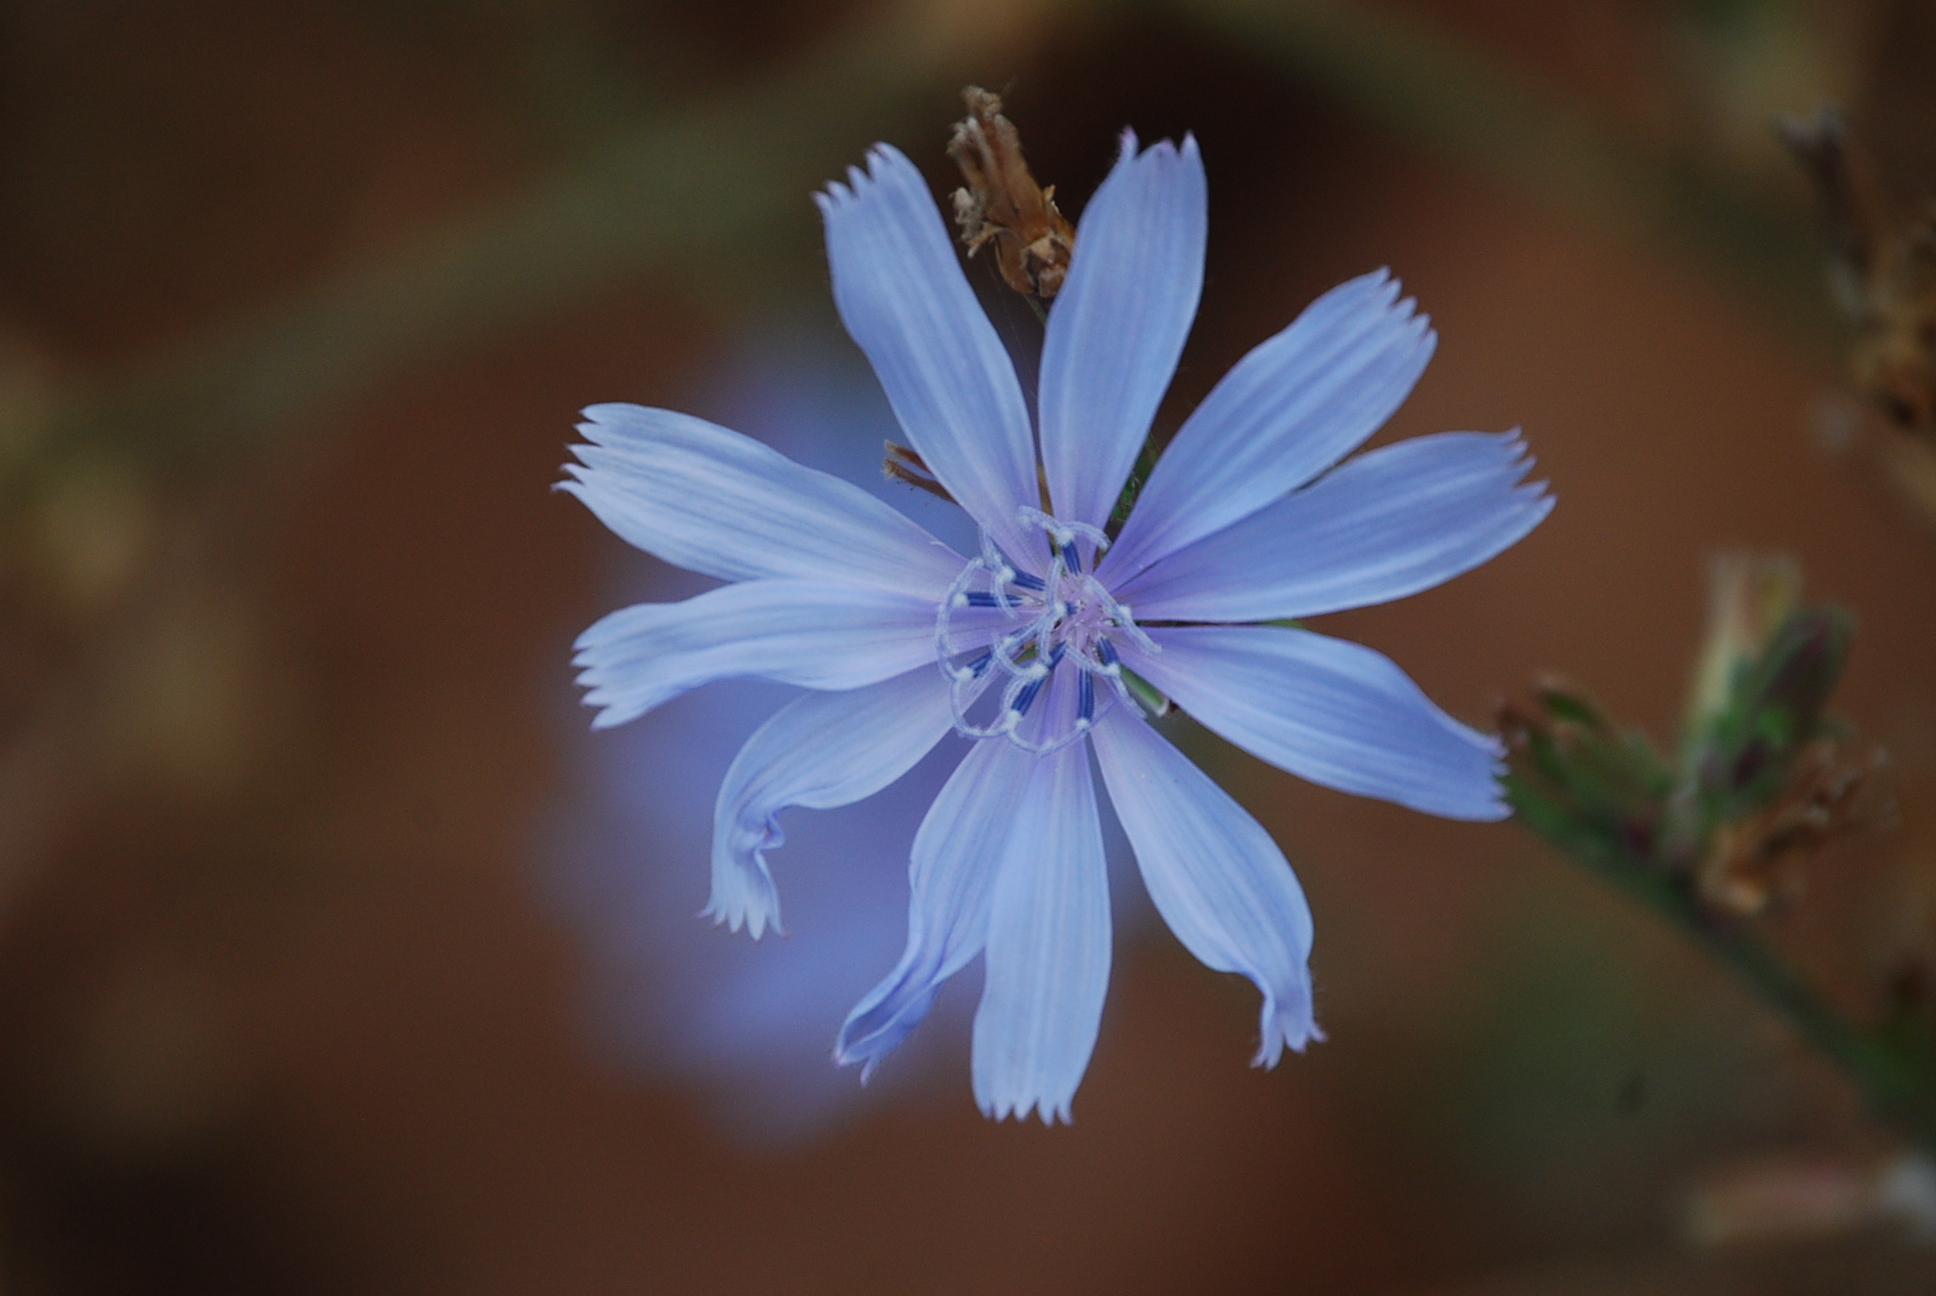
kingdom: Plantae
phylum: Tracheophyta
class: Magnoliopsida
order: Asterales
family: Asteraceae
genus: Cichorium
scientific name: Cichorium intybus
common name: Chicory
